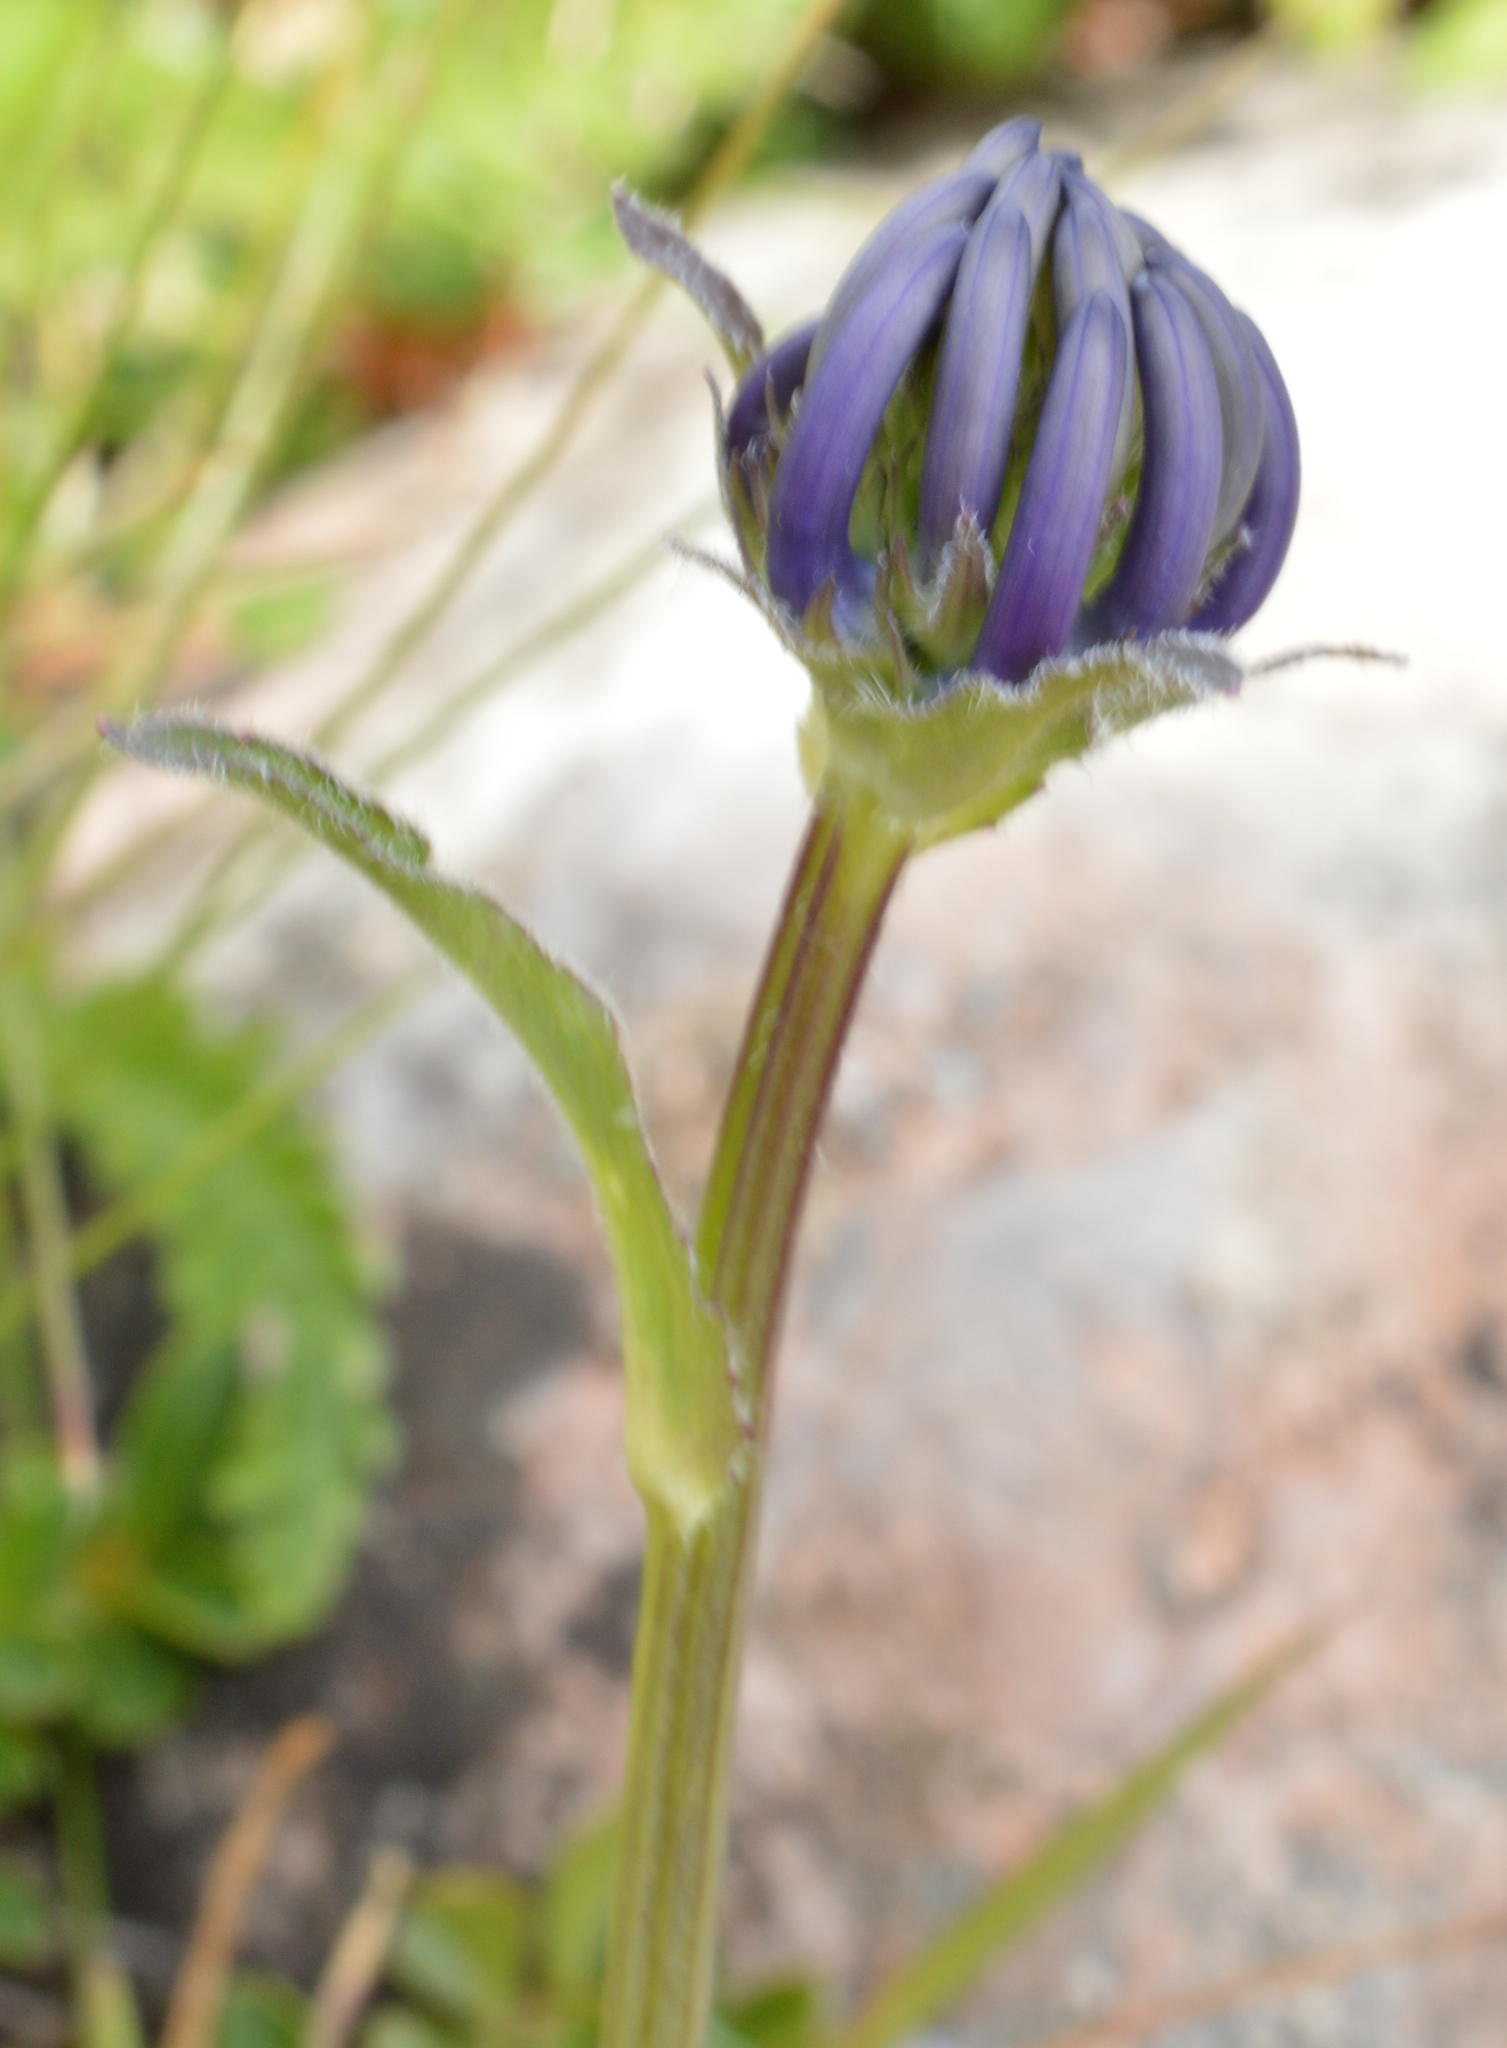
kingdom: Plantae
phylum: Tracheophyta
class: Magnoliopsida
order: Asterales
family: Campanulaceae
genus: Phyteuma
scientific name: Phyteuma orbiculare
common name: Round-headed rampion
